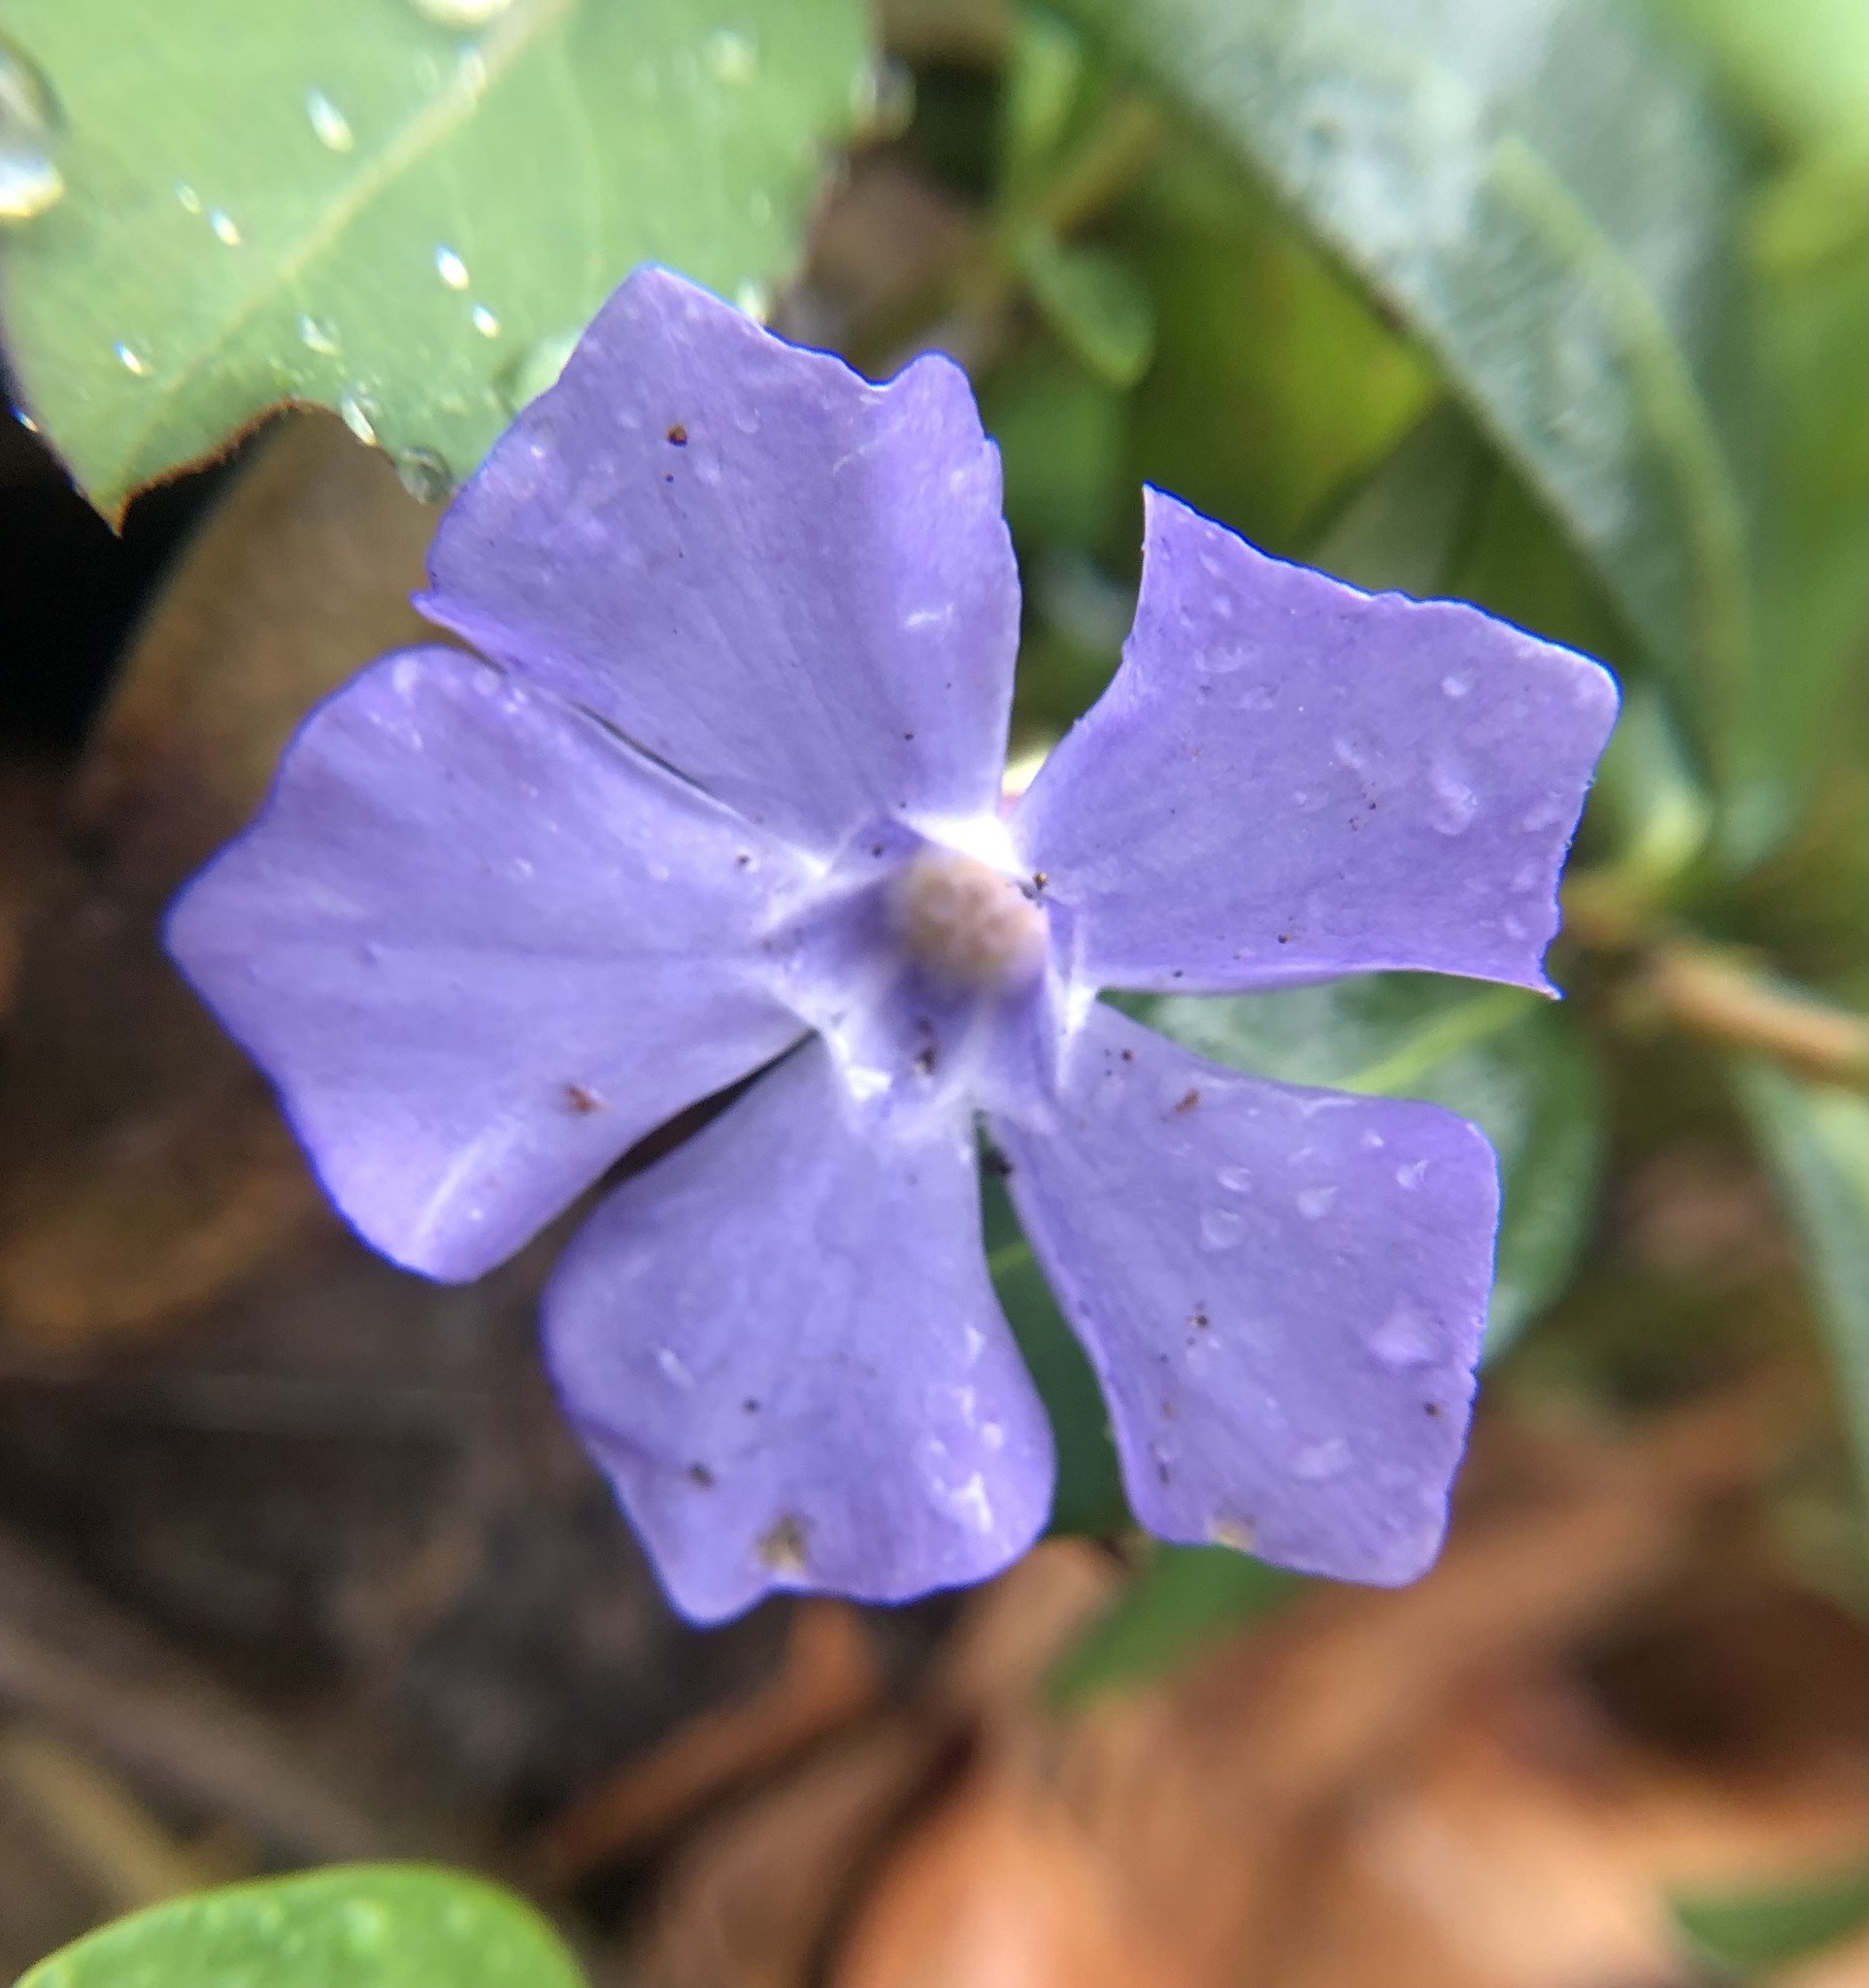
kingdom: Plantae
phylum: Tracheophyta
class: Magnoliopsida
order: Gentianales
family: Apocynaceae
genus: Vinca
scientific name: Vinca minor
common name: Lesser periwinkle
